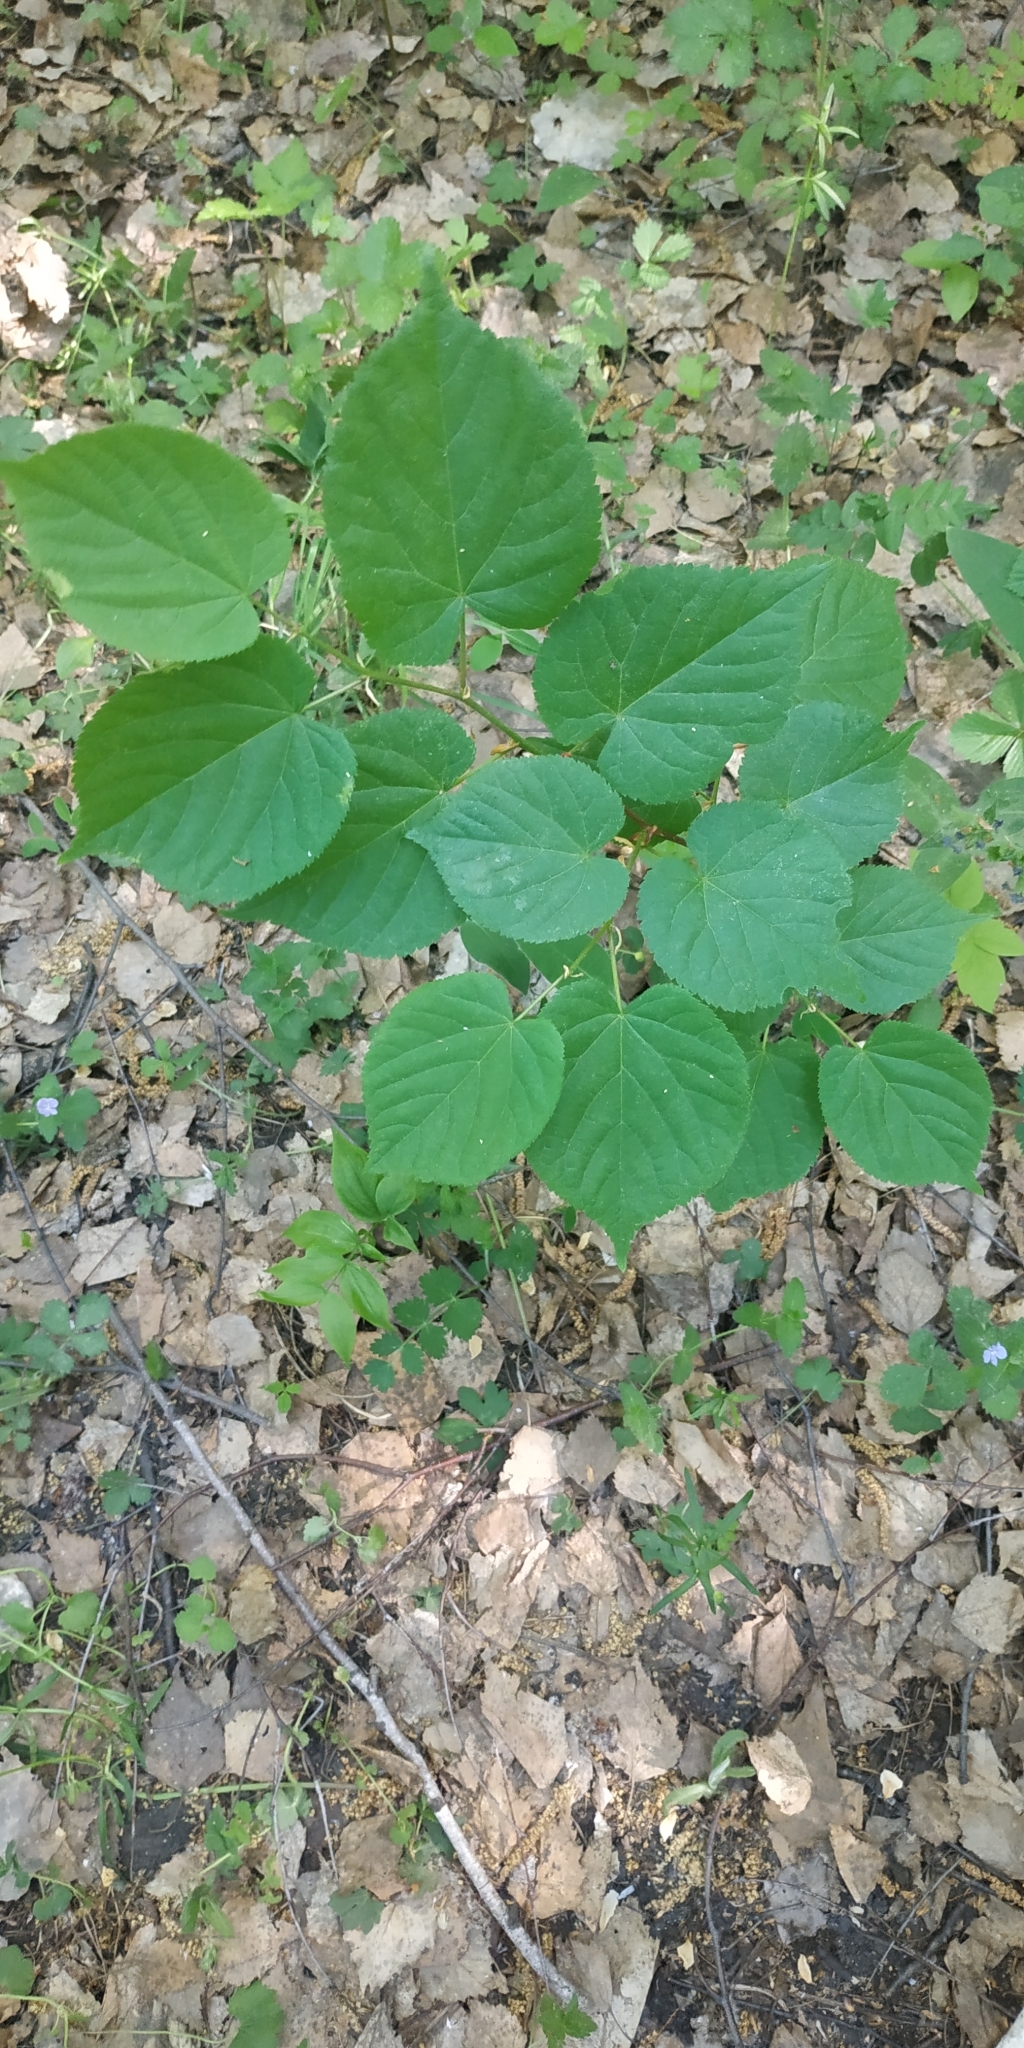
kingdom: Plantae
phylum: Tracheophyta
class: Magnoliopsida
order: Malvales
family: Malvaceae
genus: Tilia
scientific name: Tilia cordata
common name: Small-leaved lime
